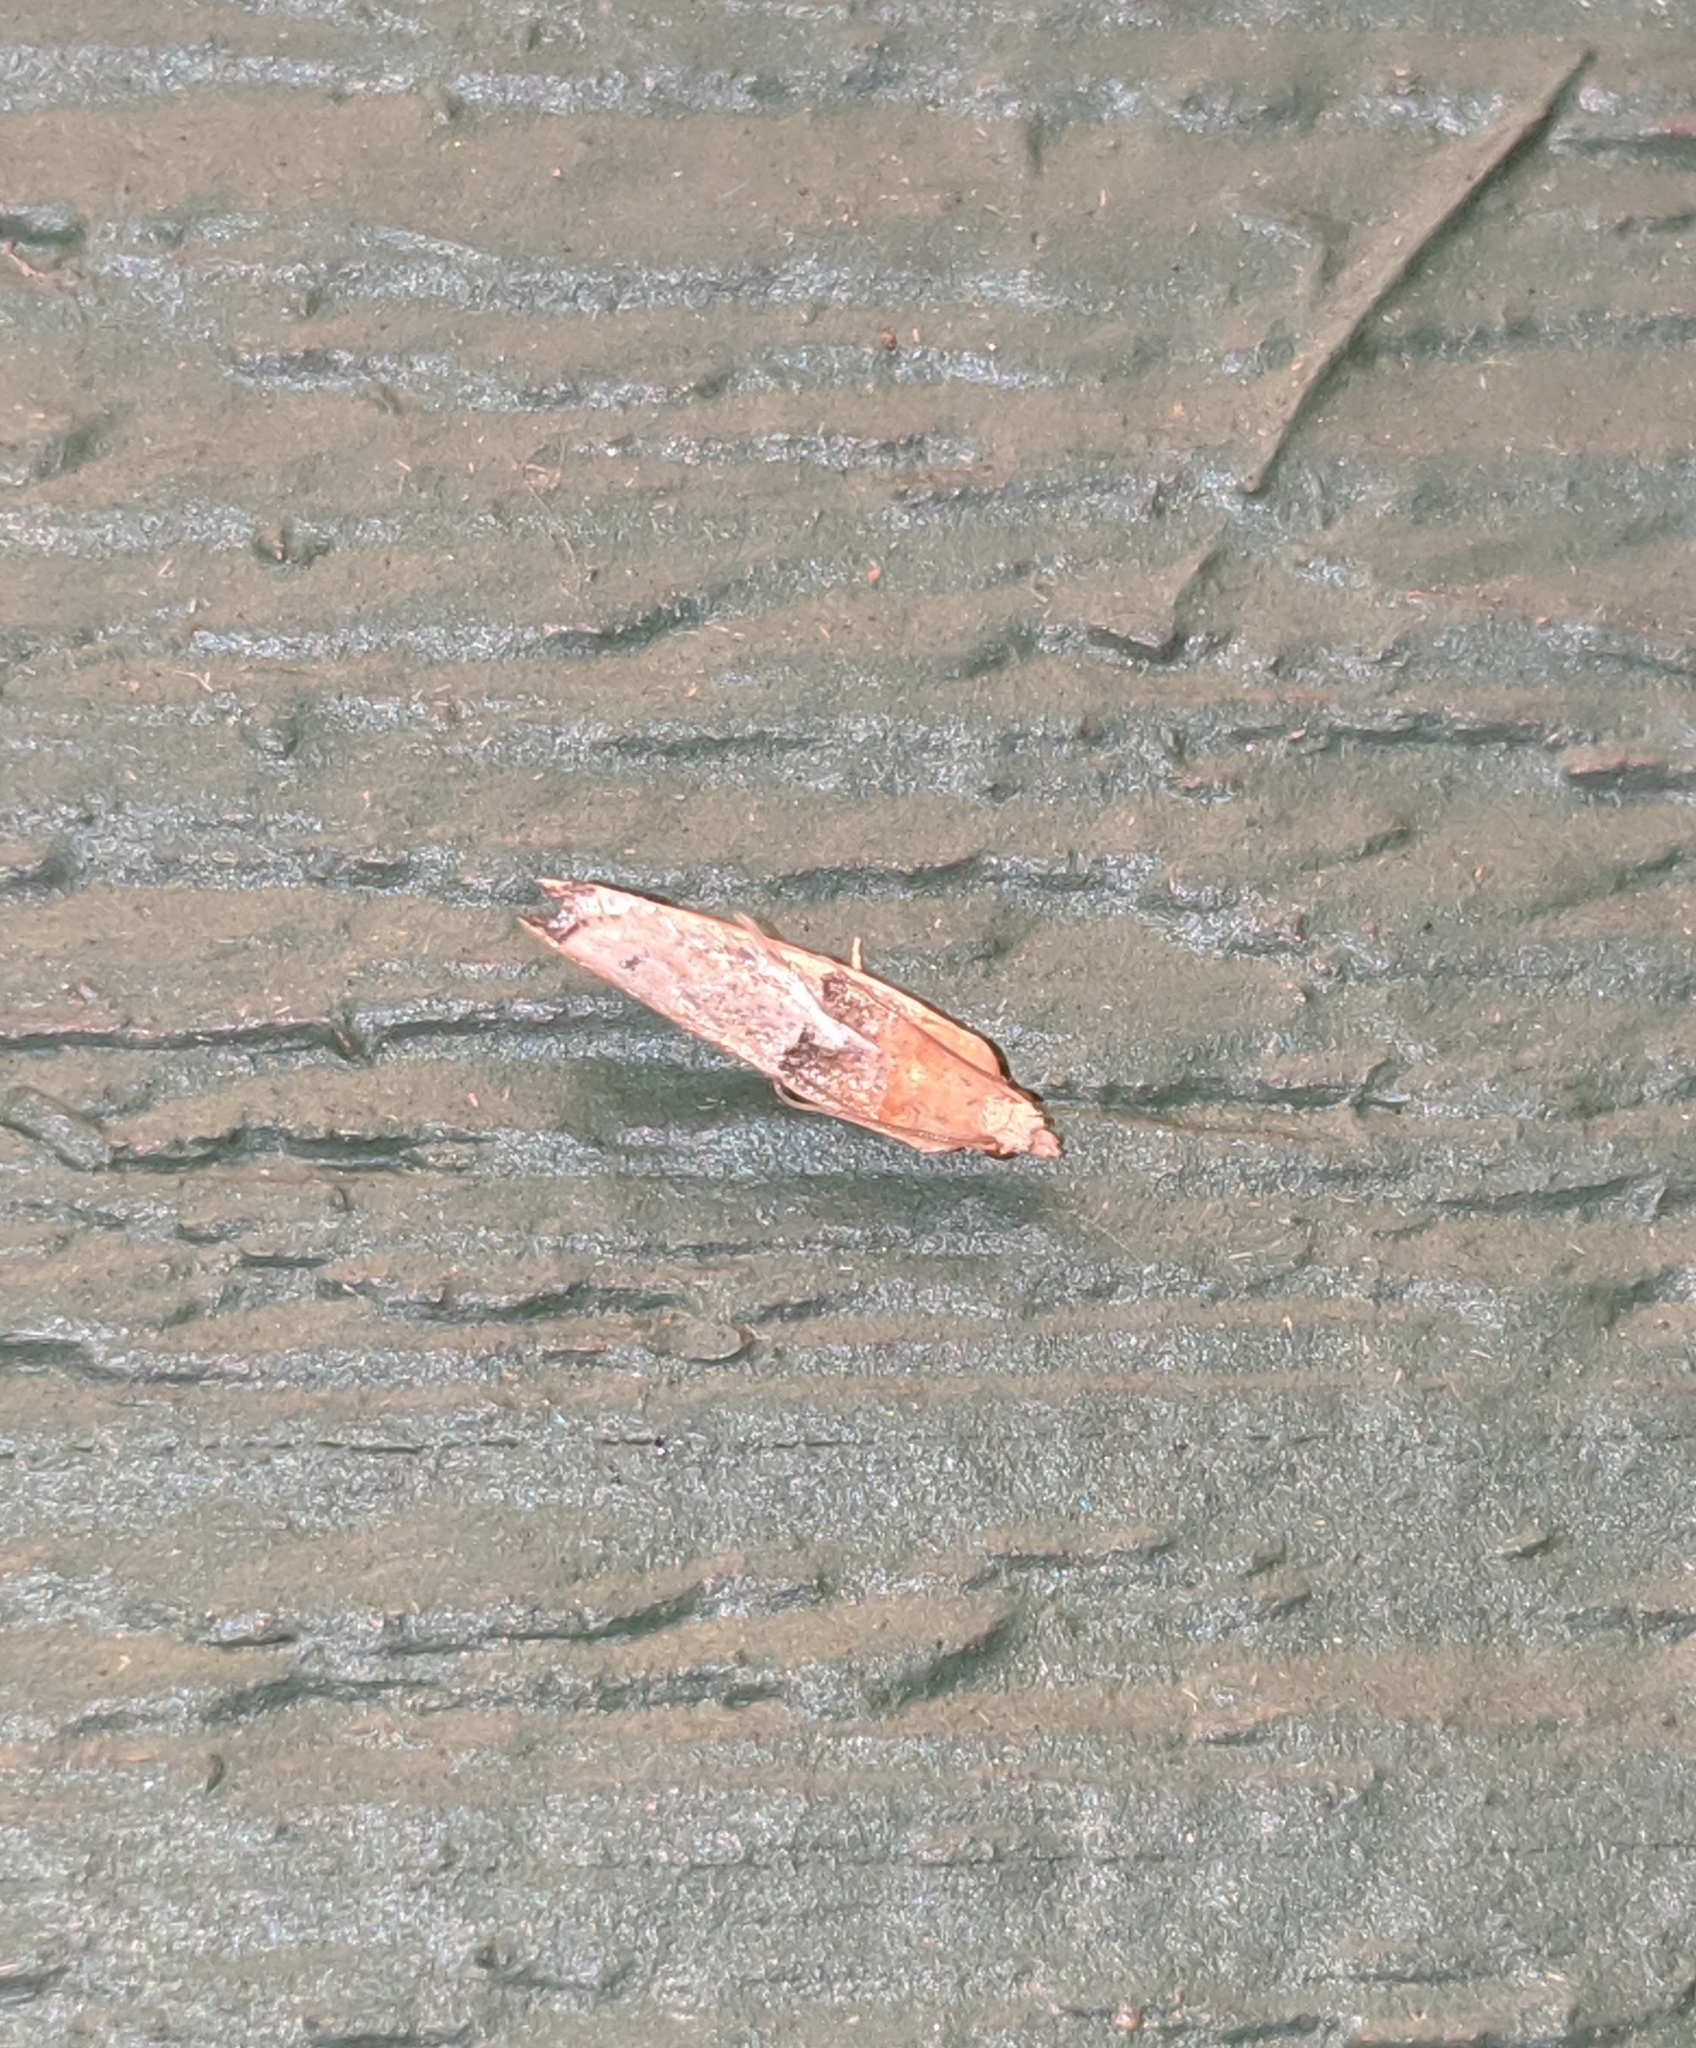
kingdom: Animalia
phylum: Arthropoda
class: Insecta
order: Lepidoptera
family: Tortricidae
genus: Epinotia
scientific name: Epinotia johnsonana
